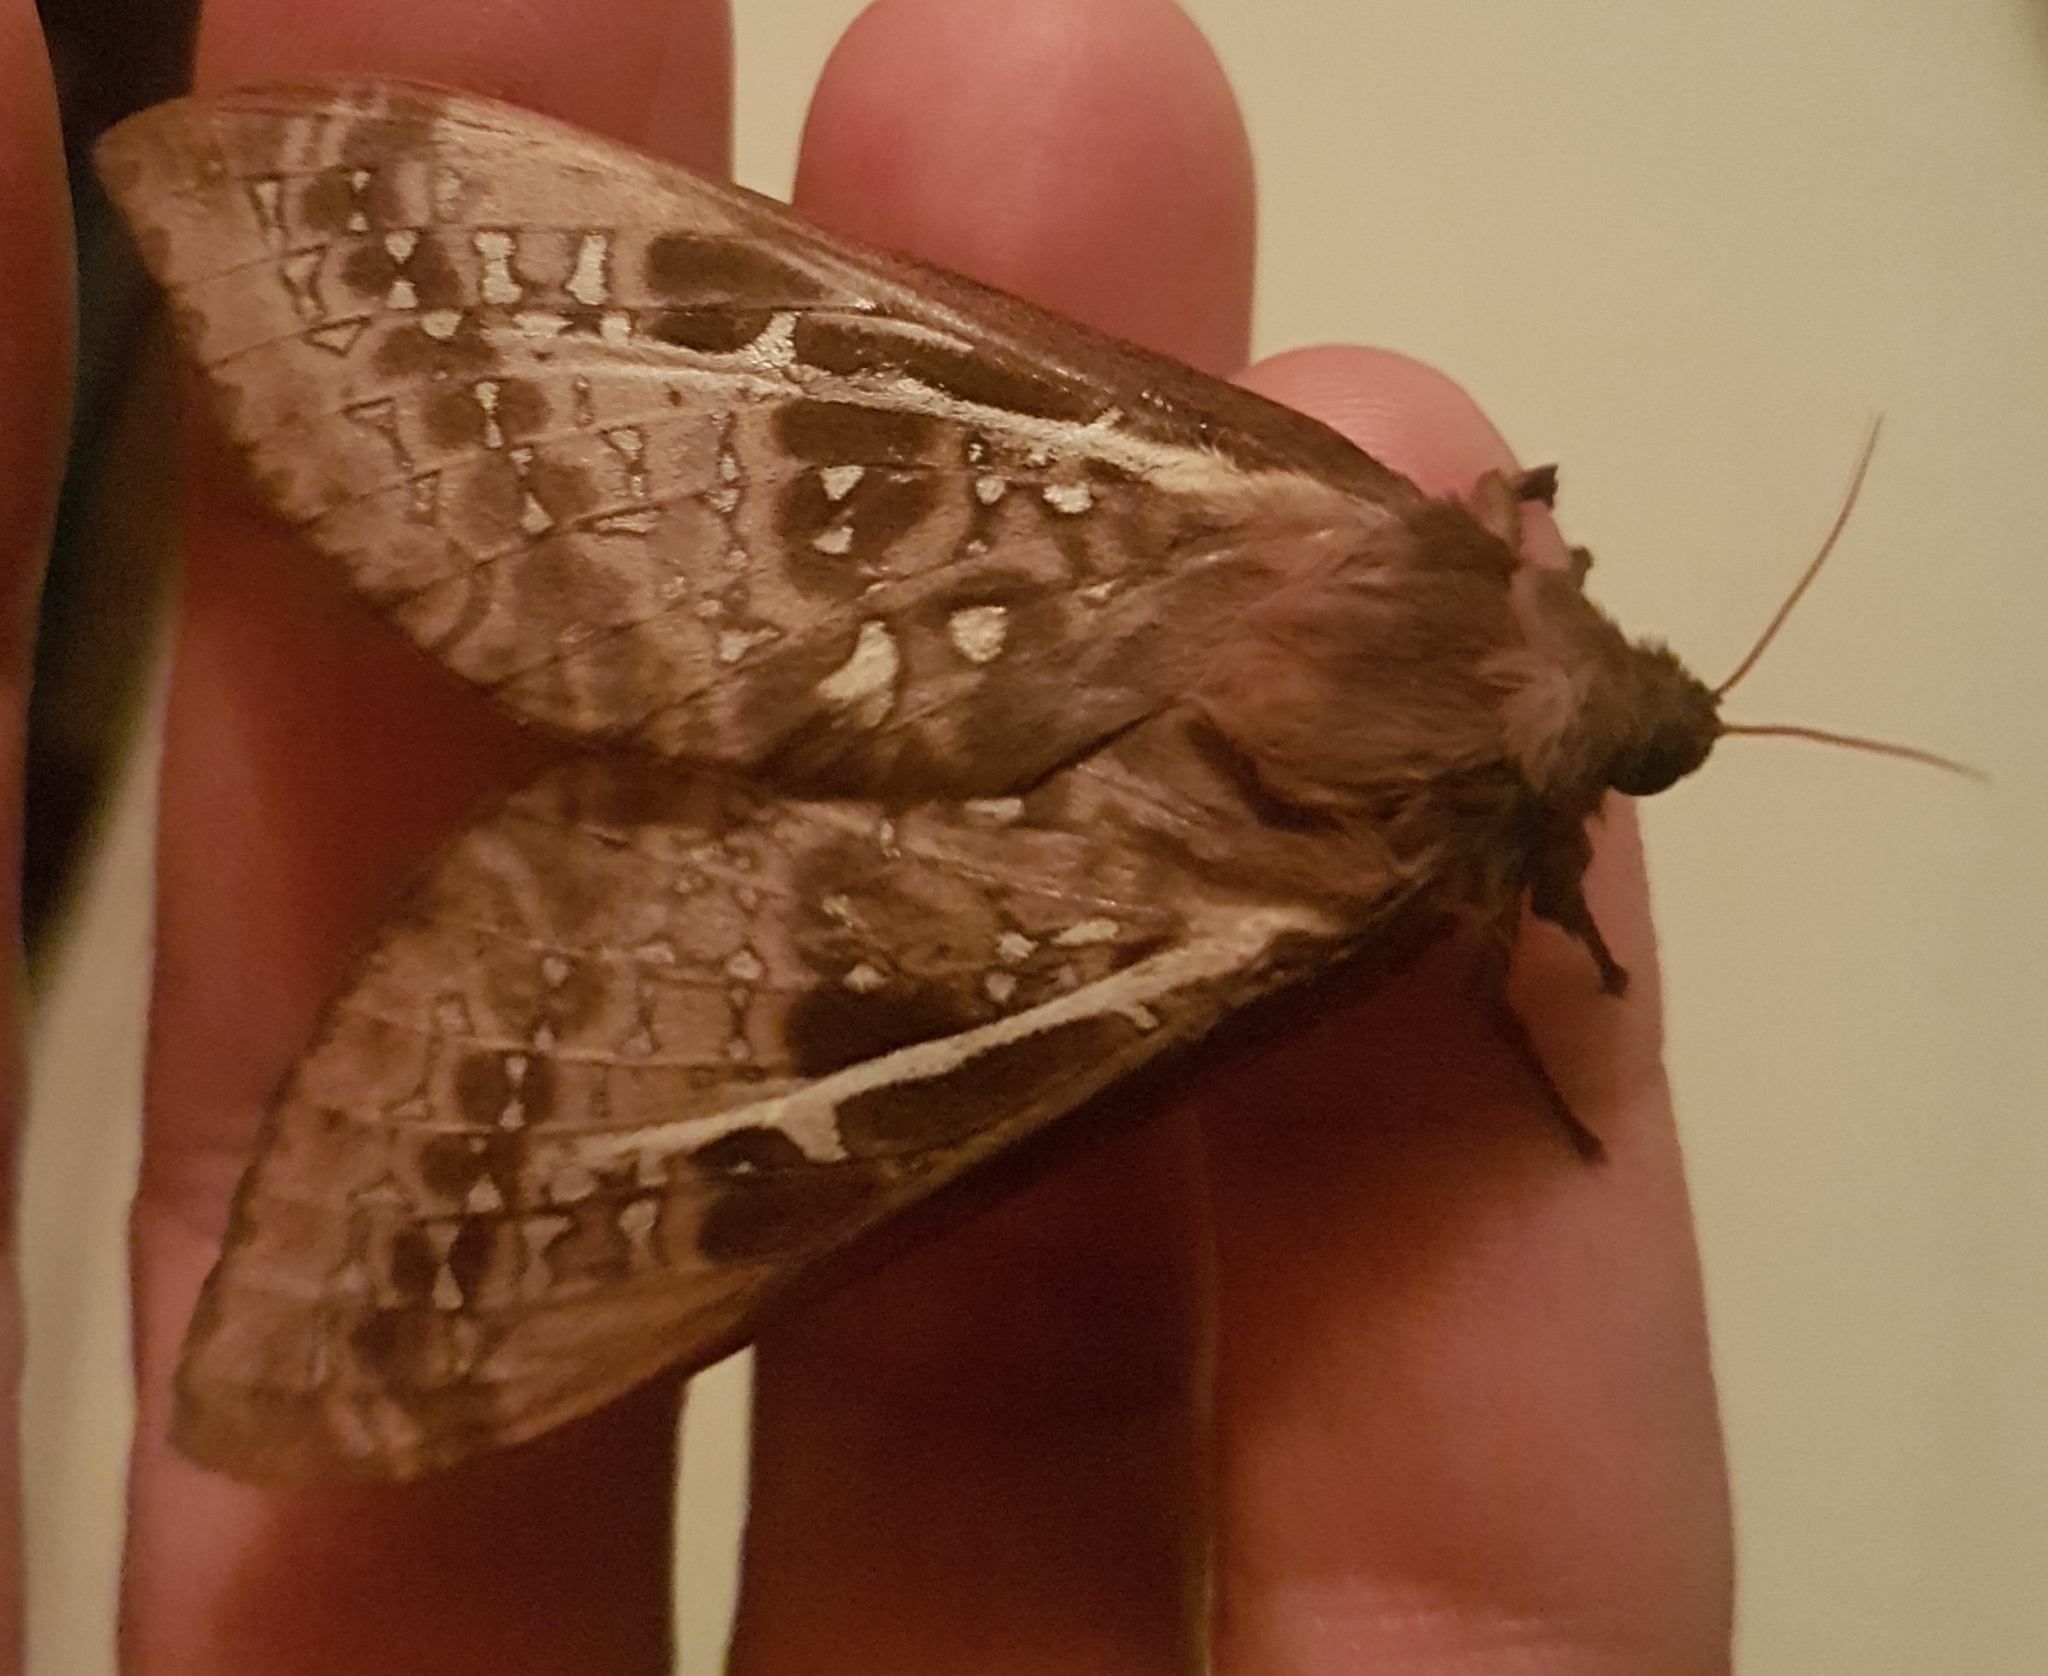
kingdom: Animalia
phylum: Arthropoda
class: Insecta
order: Lepidoptera
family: Hepialidae
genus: Oxycanus
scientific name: Oxycanus dirempta
